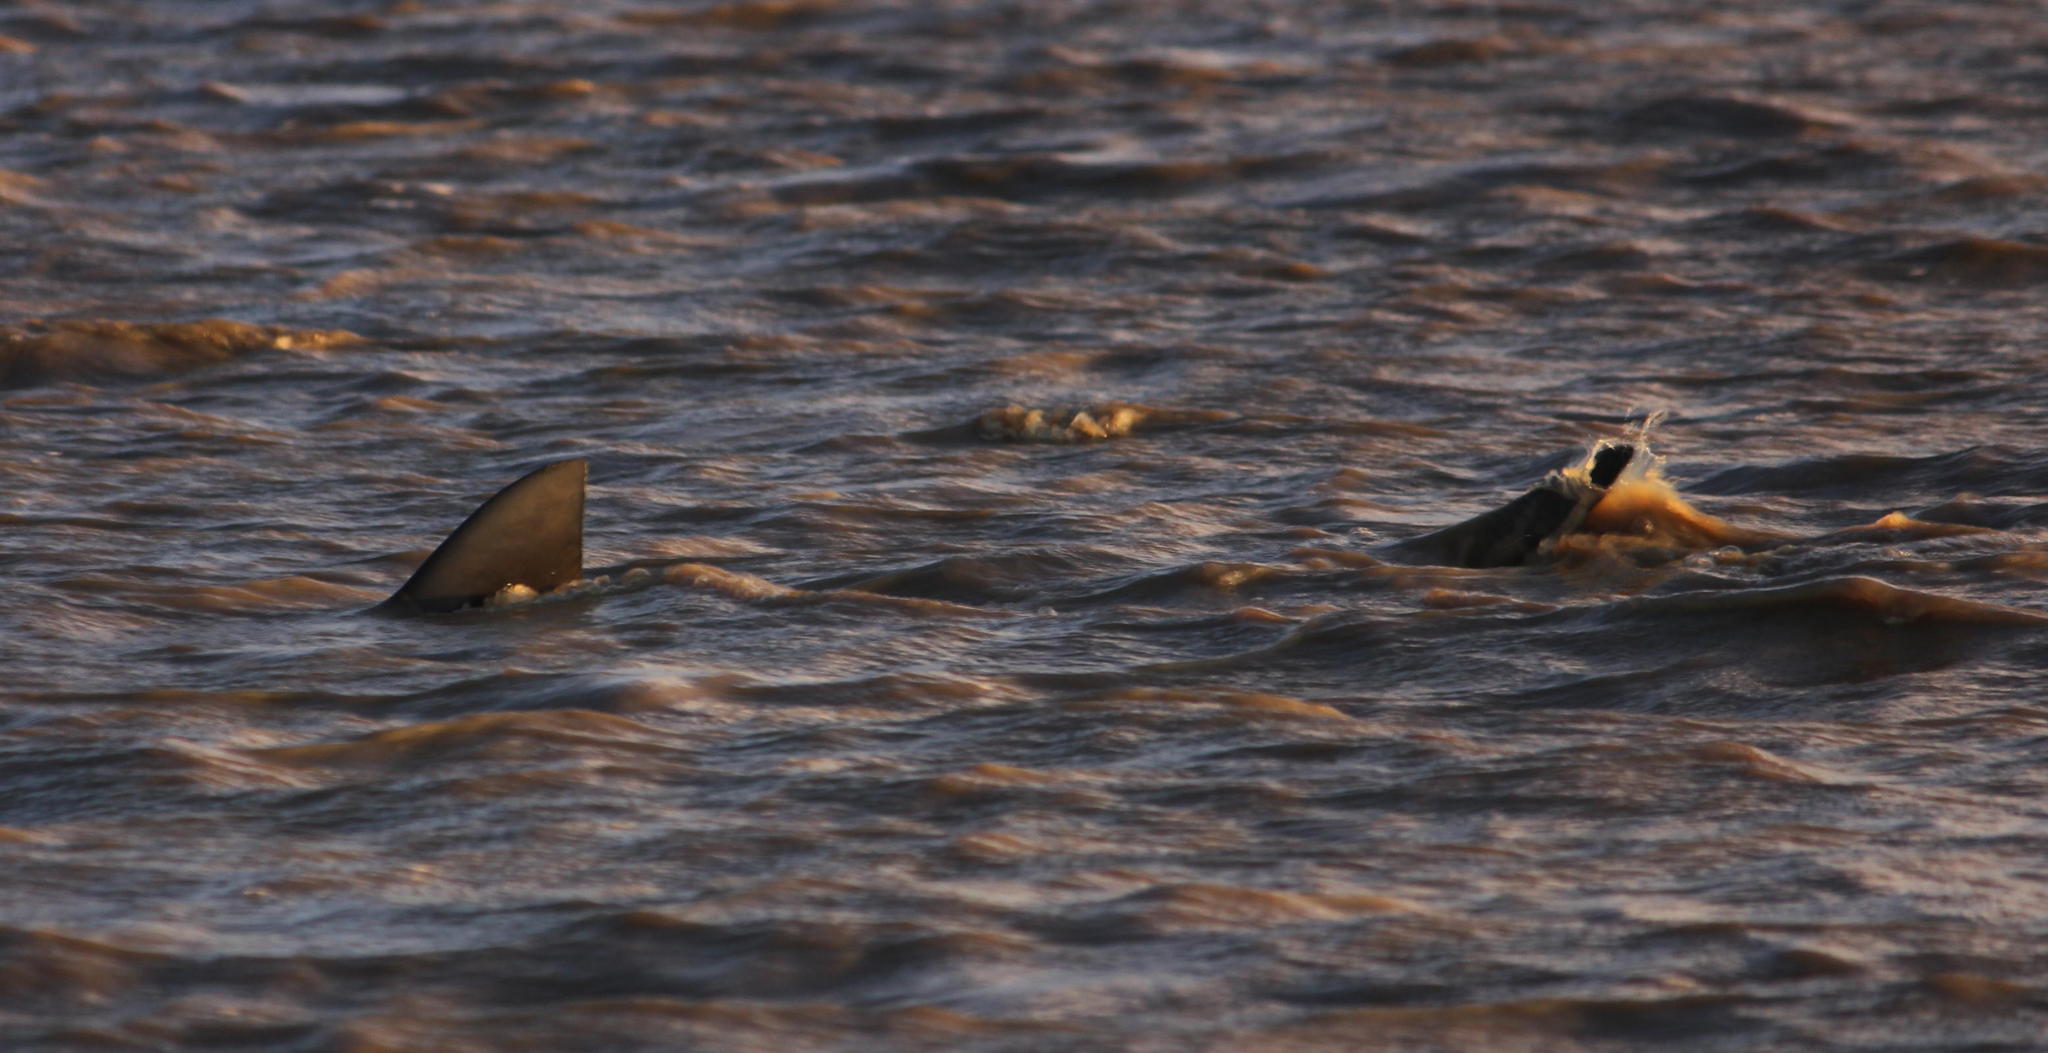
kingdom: Animalia
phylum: Chordata
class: Elasmobranchii
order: Carcharhiniformes
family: Carcharhinidae
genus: Carcharhinus
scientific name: Carcharhinus leucas
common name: Bull shark
